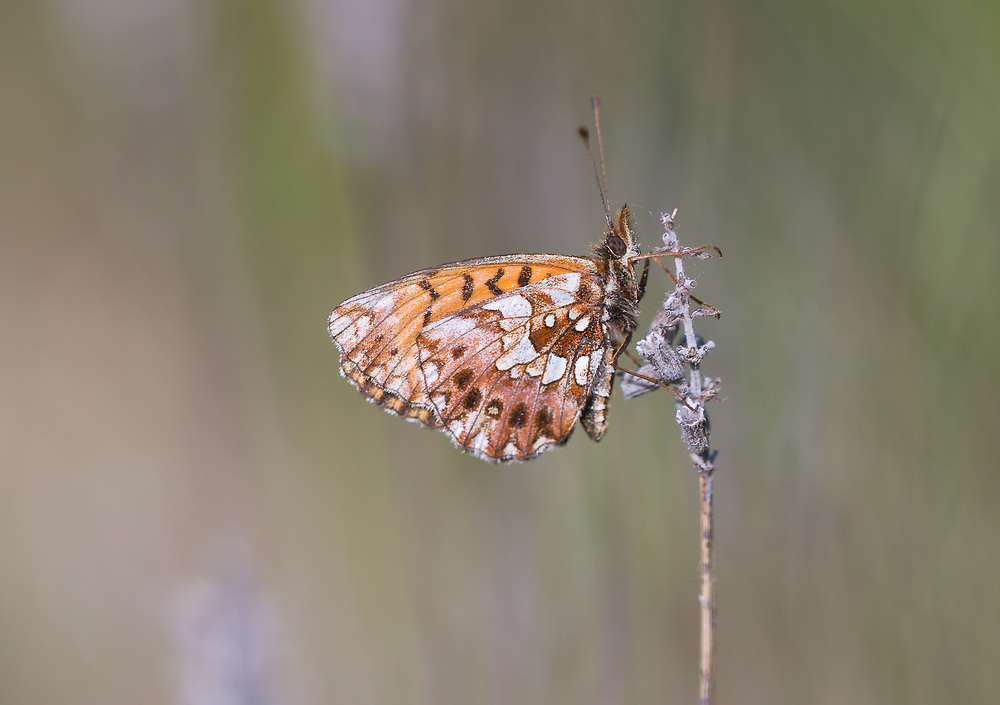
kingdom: Animalia
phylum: Arthropoda
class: Insecta
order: Lepidoptera
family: Nymphalidae
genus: Boloria
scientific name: Boloria dia
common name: Weaver's fritillary
